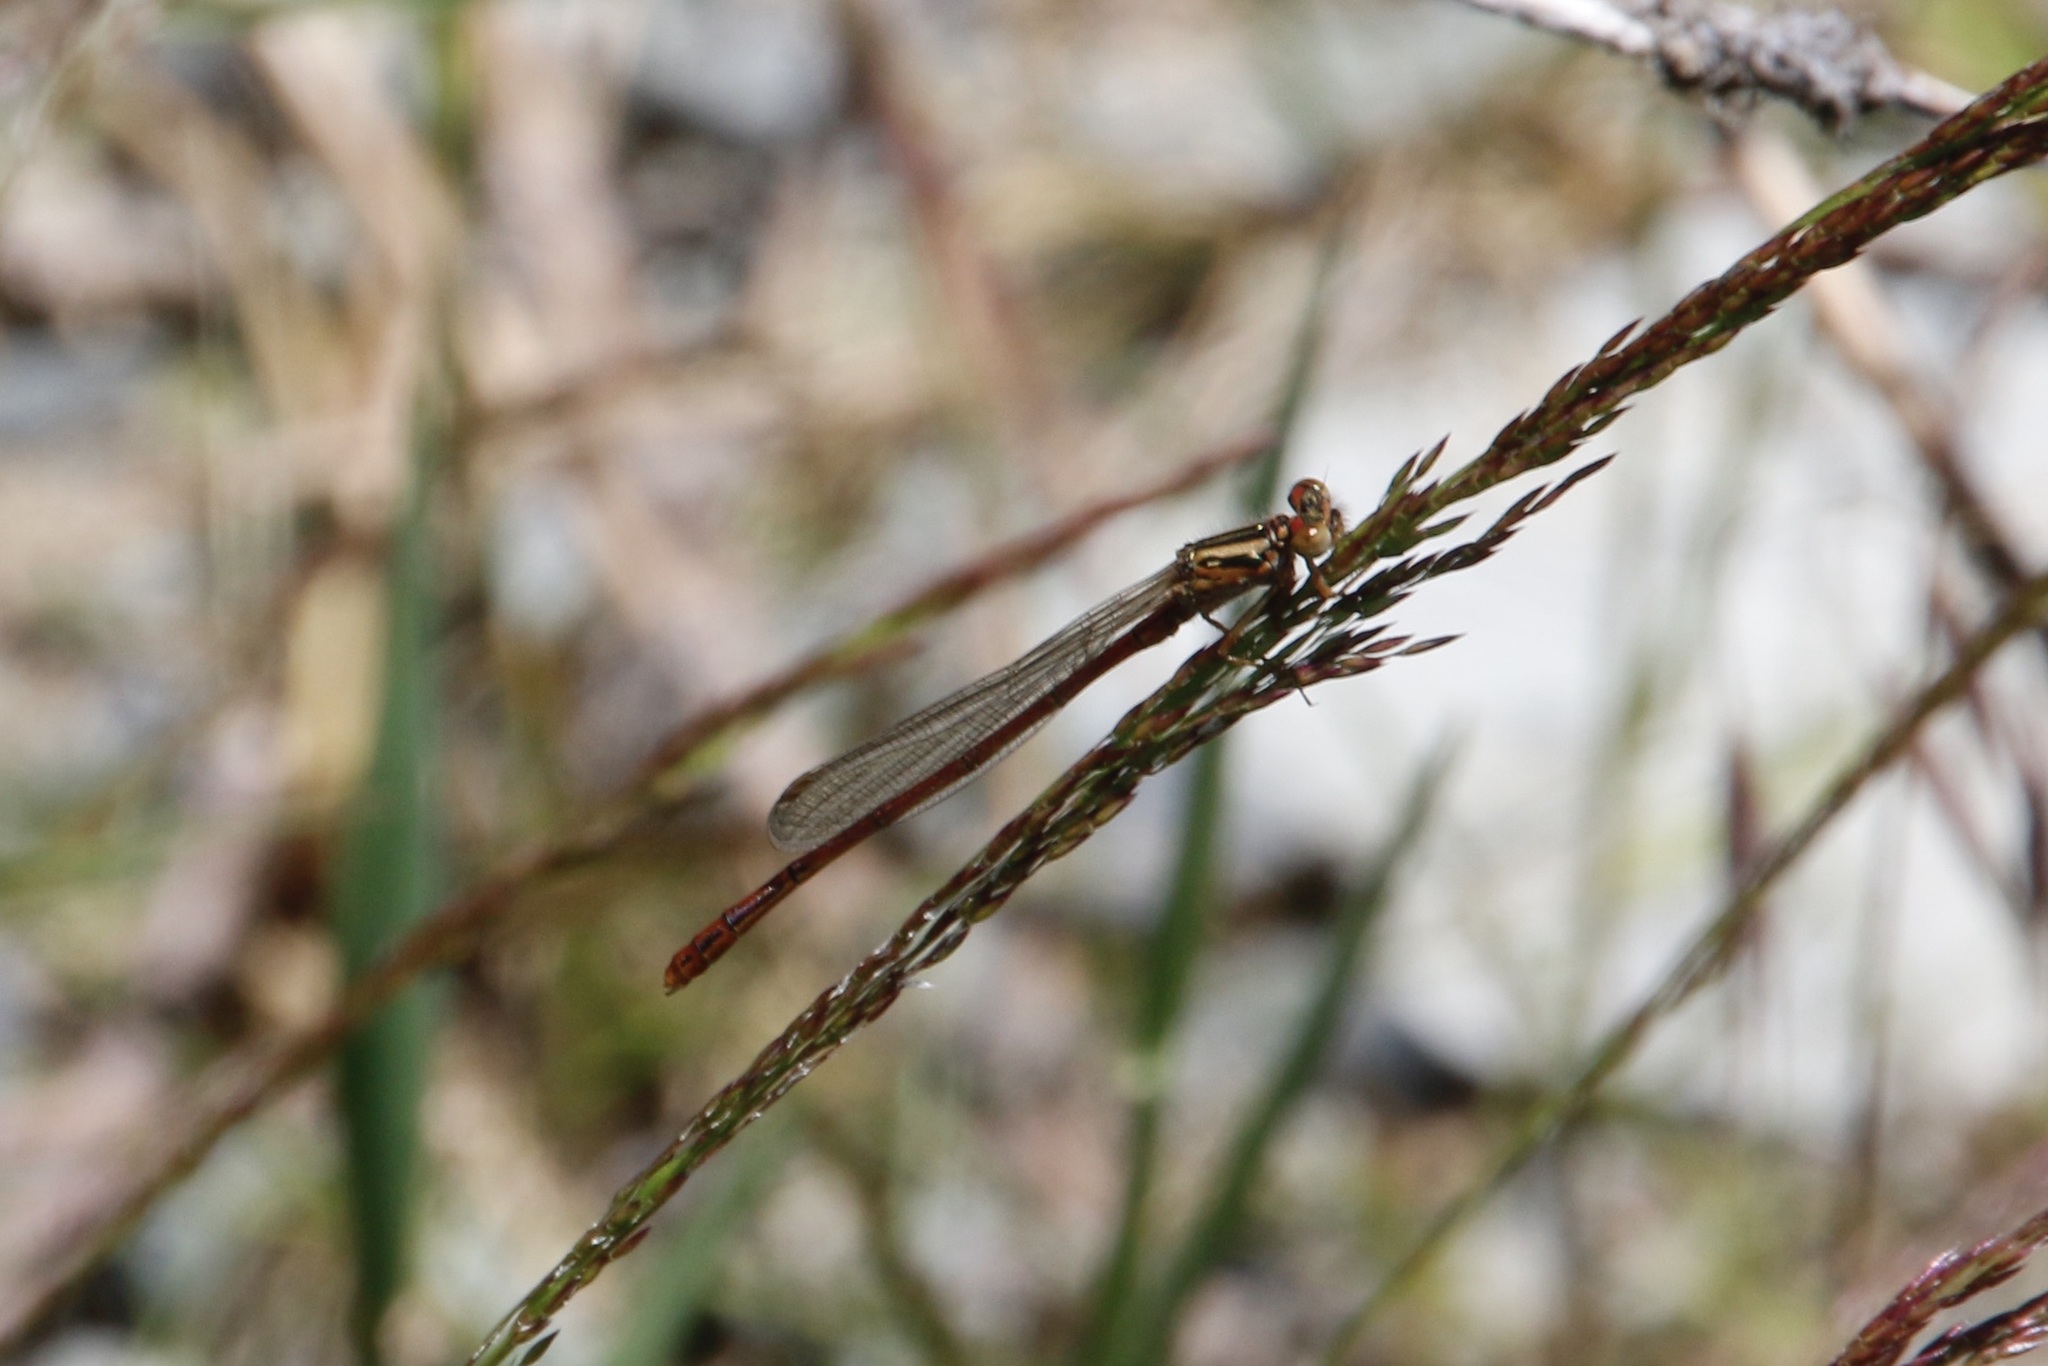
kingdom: Animalia
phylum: Arthropoda
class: Insecta
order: Odonata
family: Coenagrionidae
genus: Xanthocnemis
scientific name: Xanthocnemis zealandica
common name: Common redcoat damselfly
